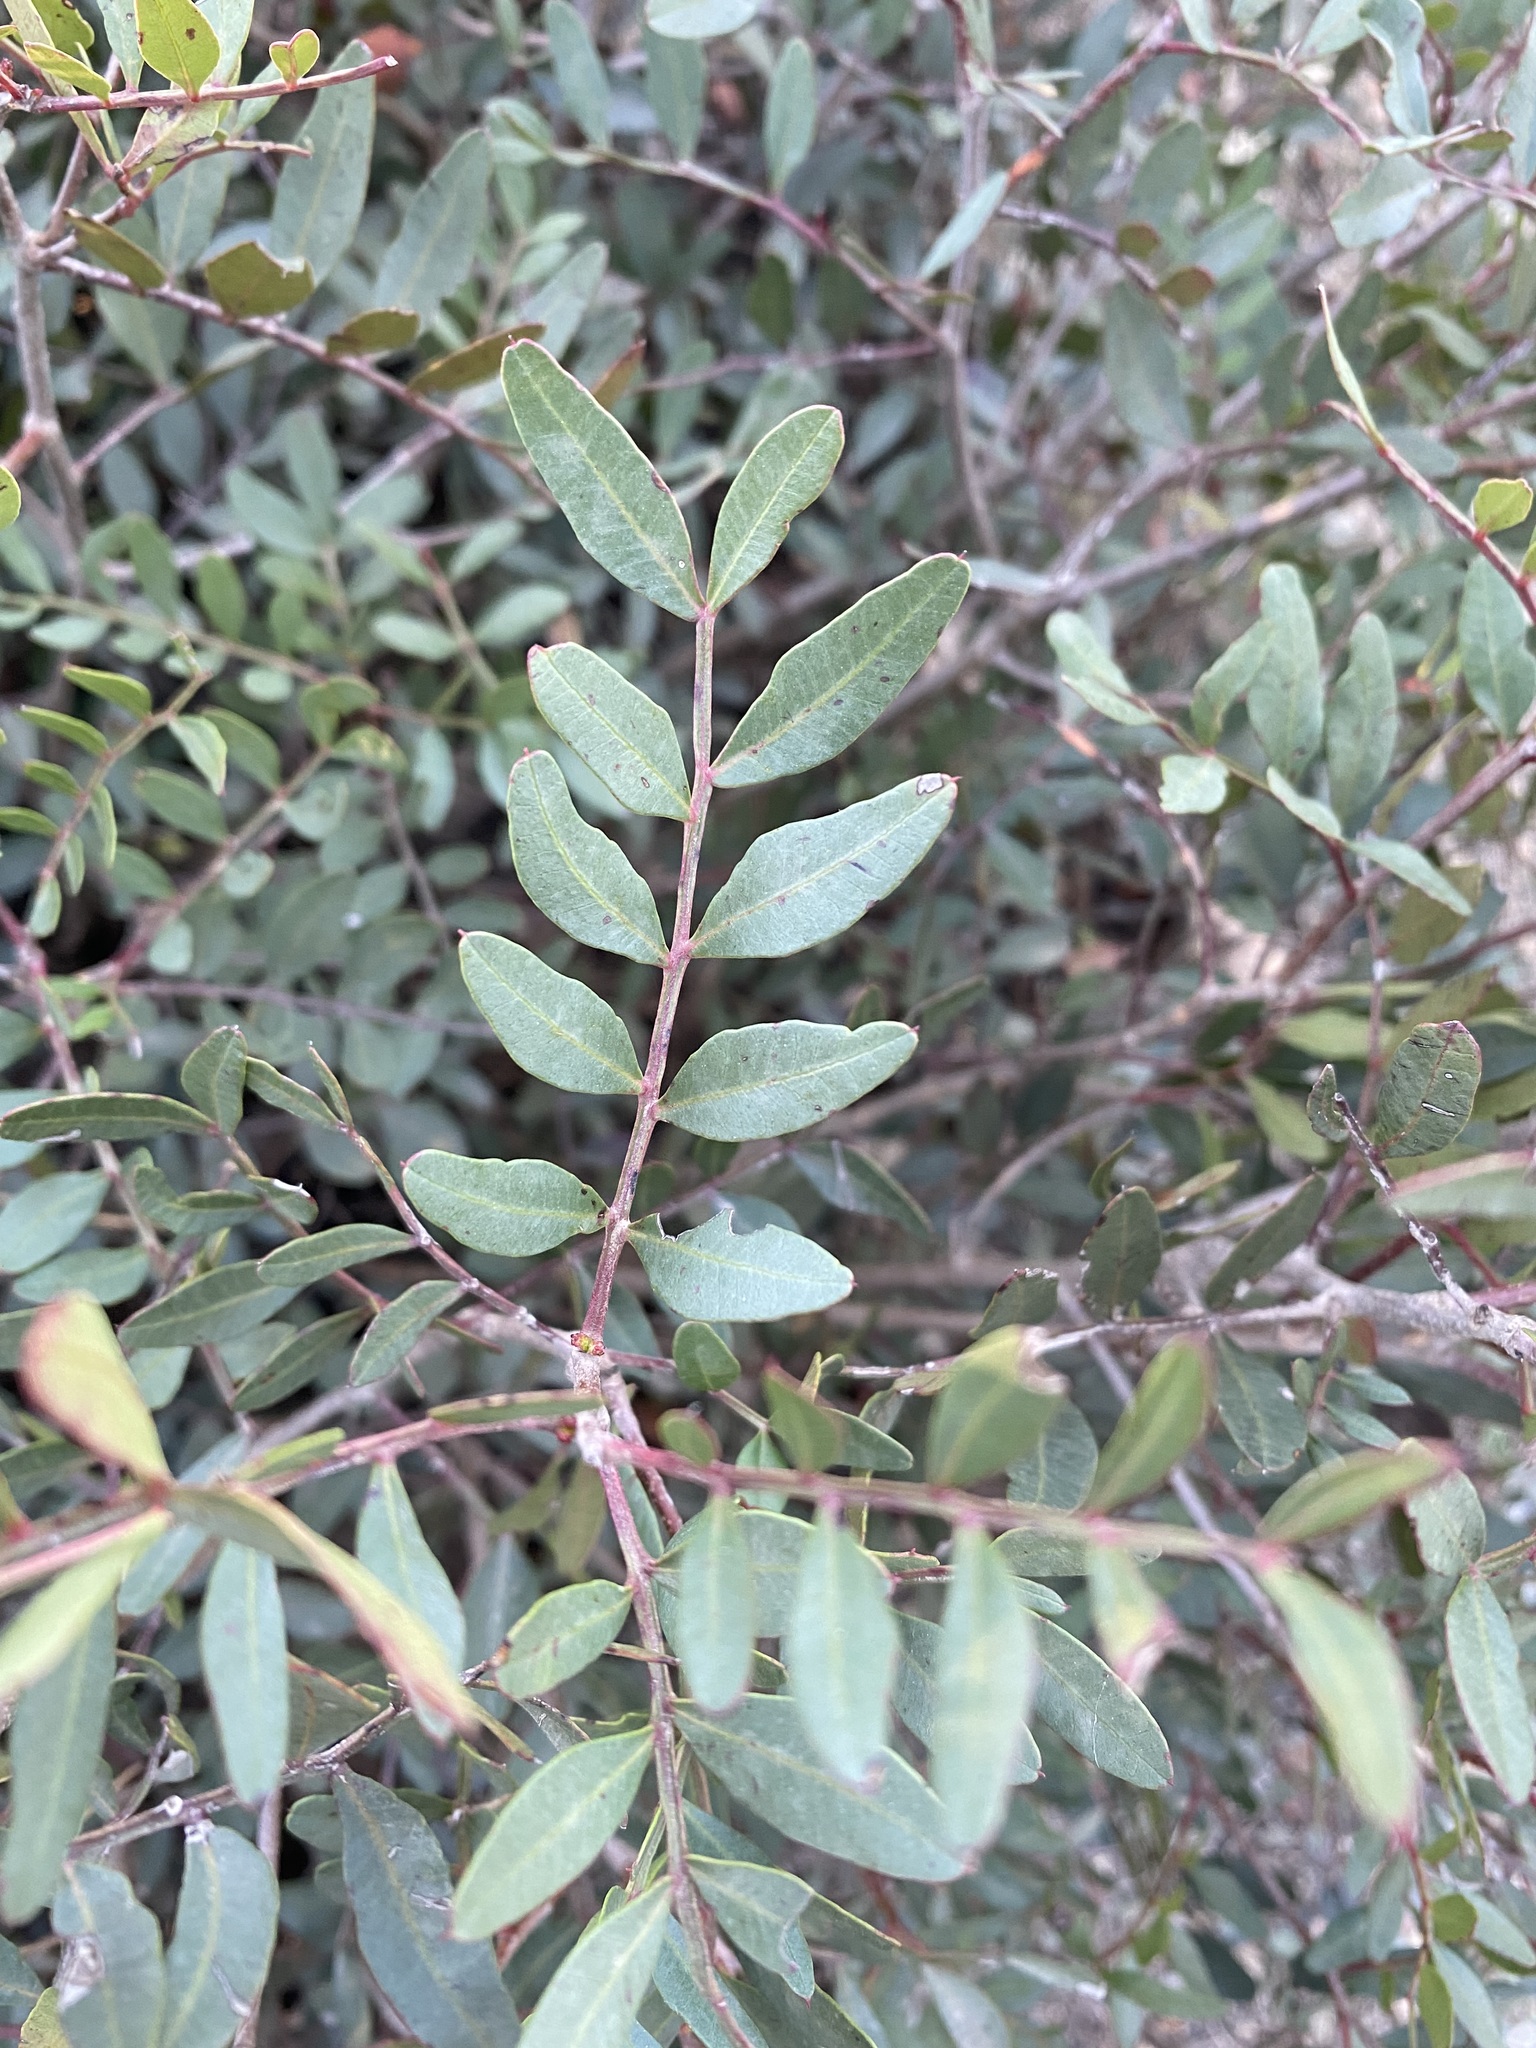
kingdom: Plantae
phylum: Tracheophyta
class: Magnoliopsida
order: Sapindales
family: Anacardiaceae
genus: Pistacia
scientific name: Pistacia lentiscus
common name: Lentisk
